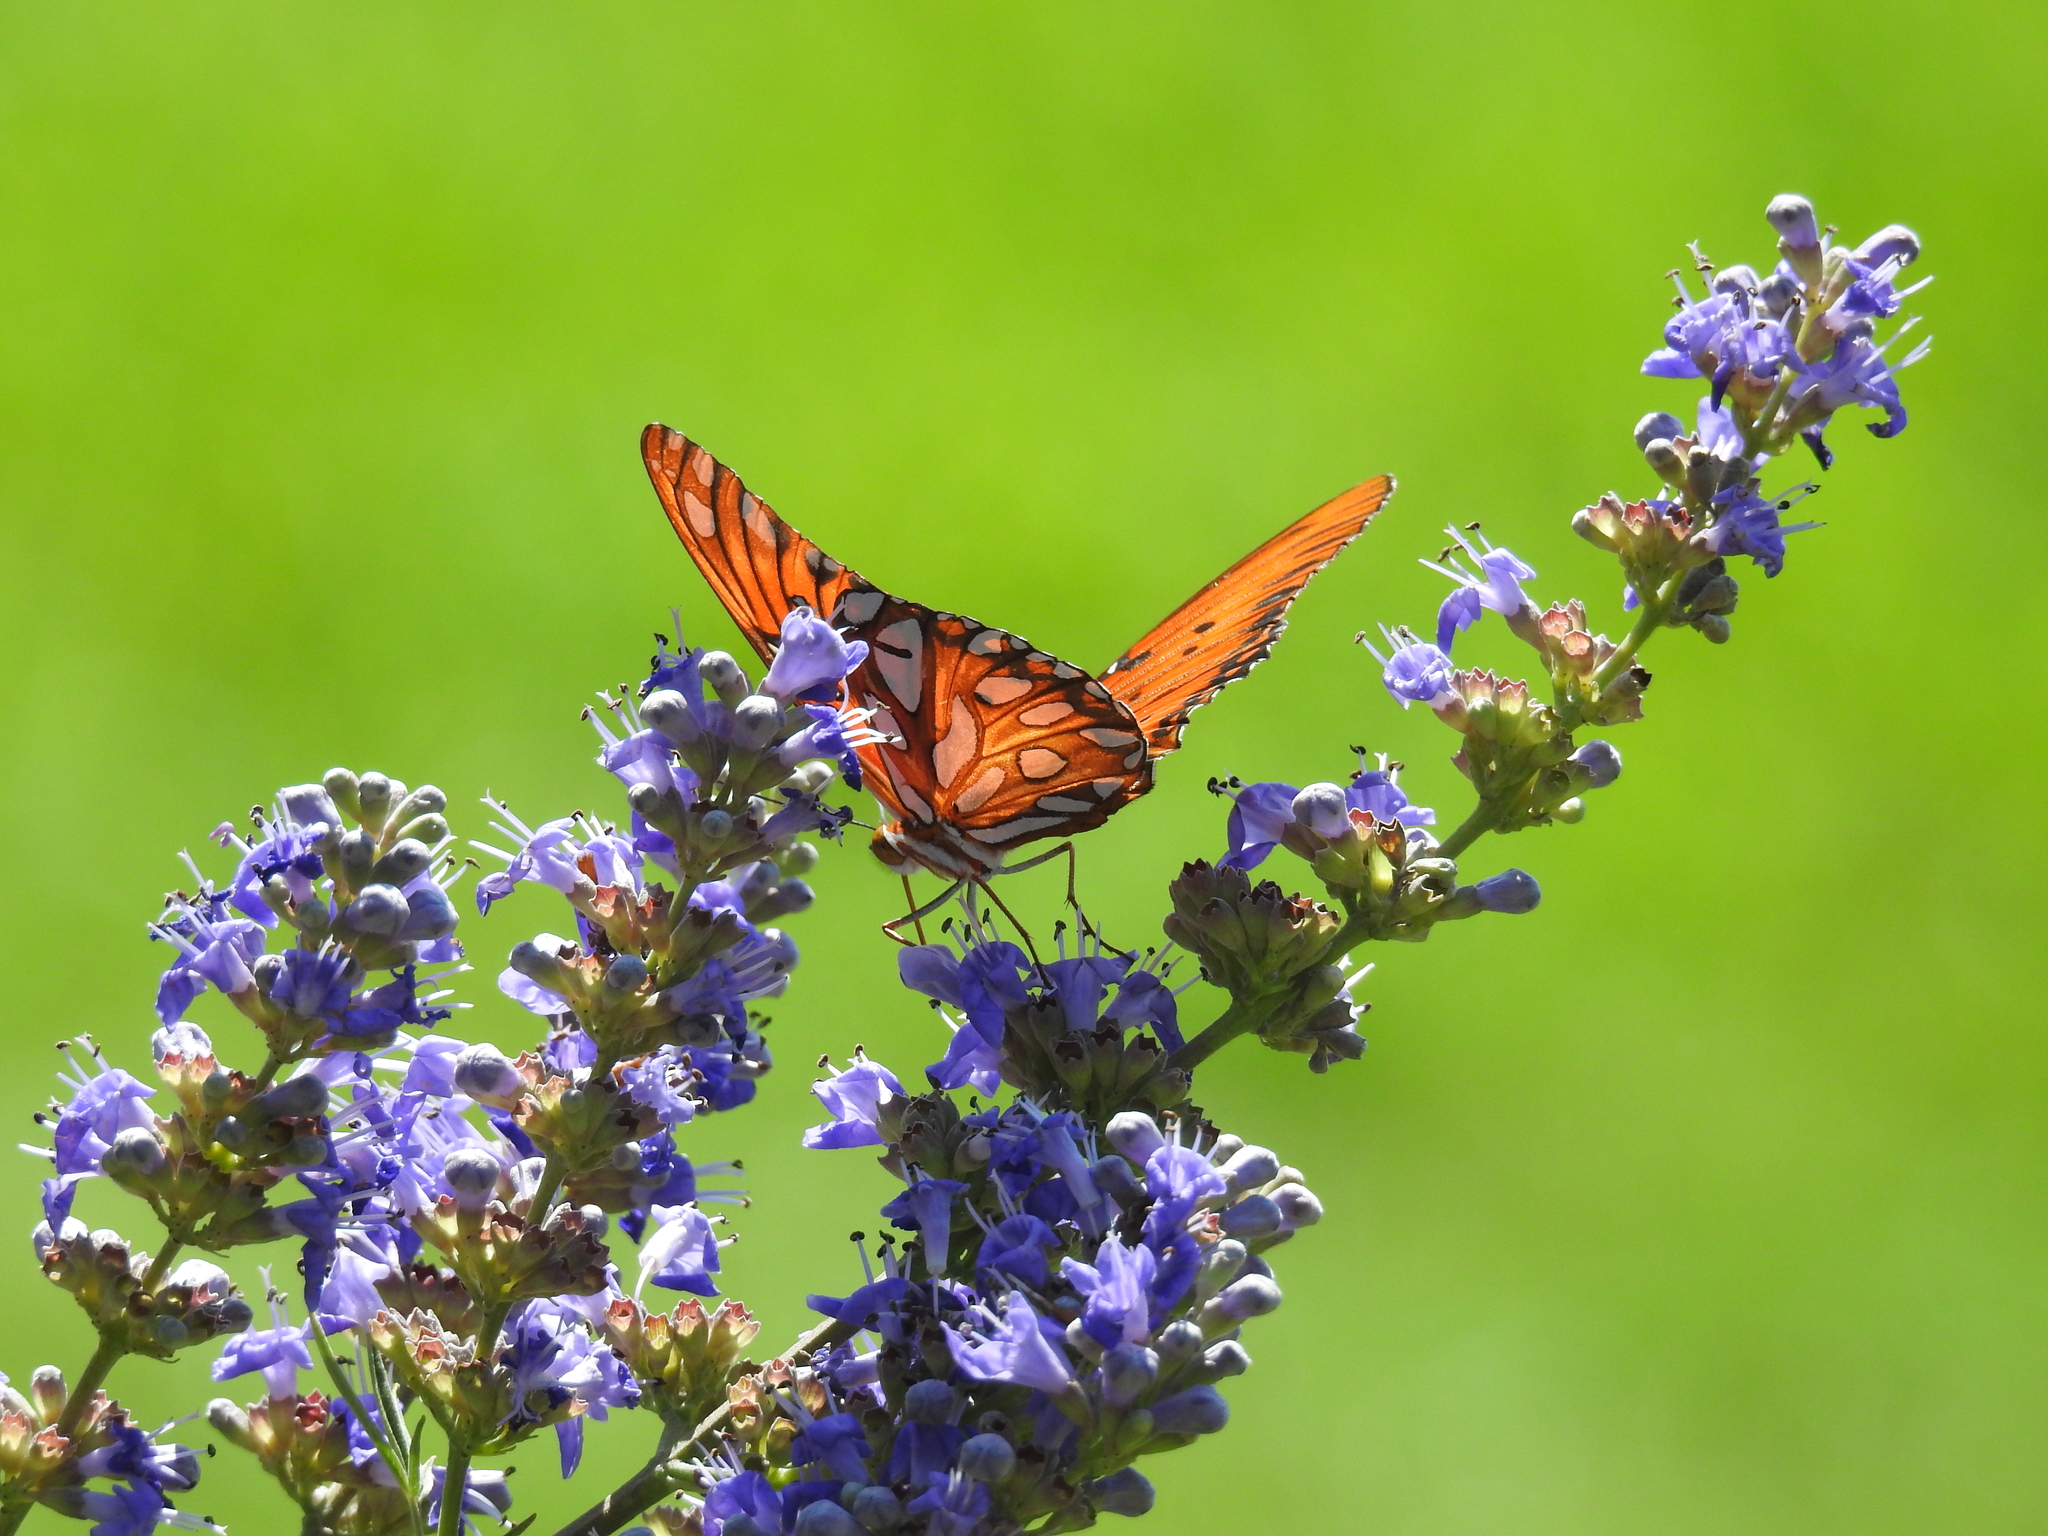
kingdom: Animalia
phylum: Arthropoda
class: Insecta
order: Lepidoptera
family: Nymphalidae
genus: Dione
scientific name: Dione vanillae
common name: Gulf fritillary
